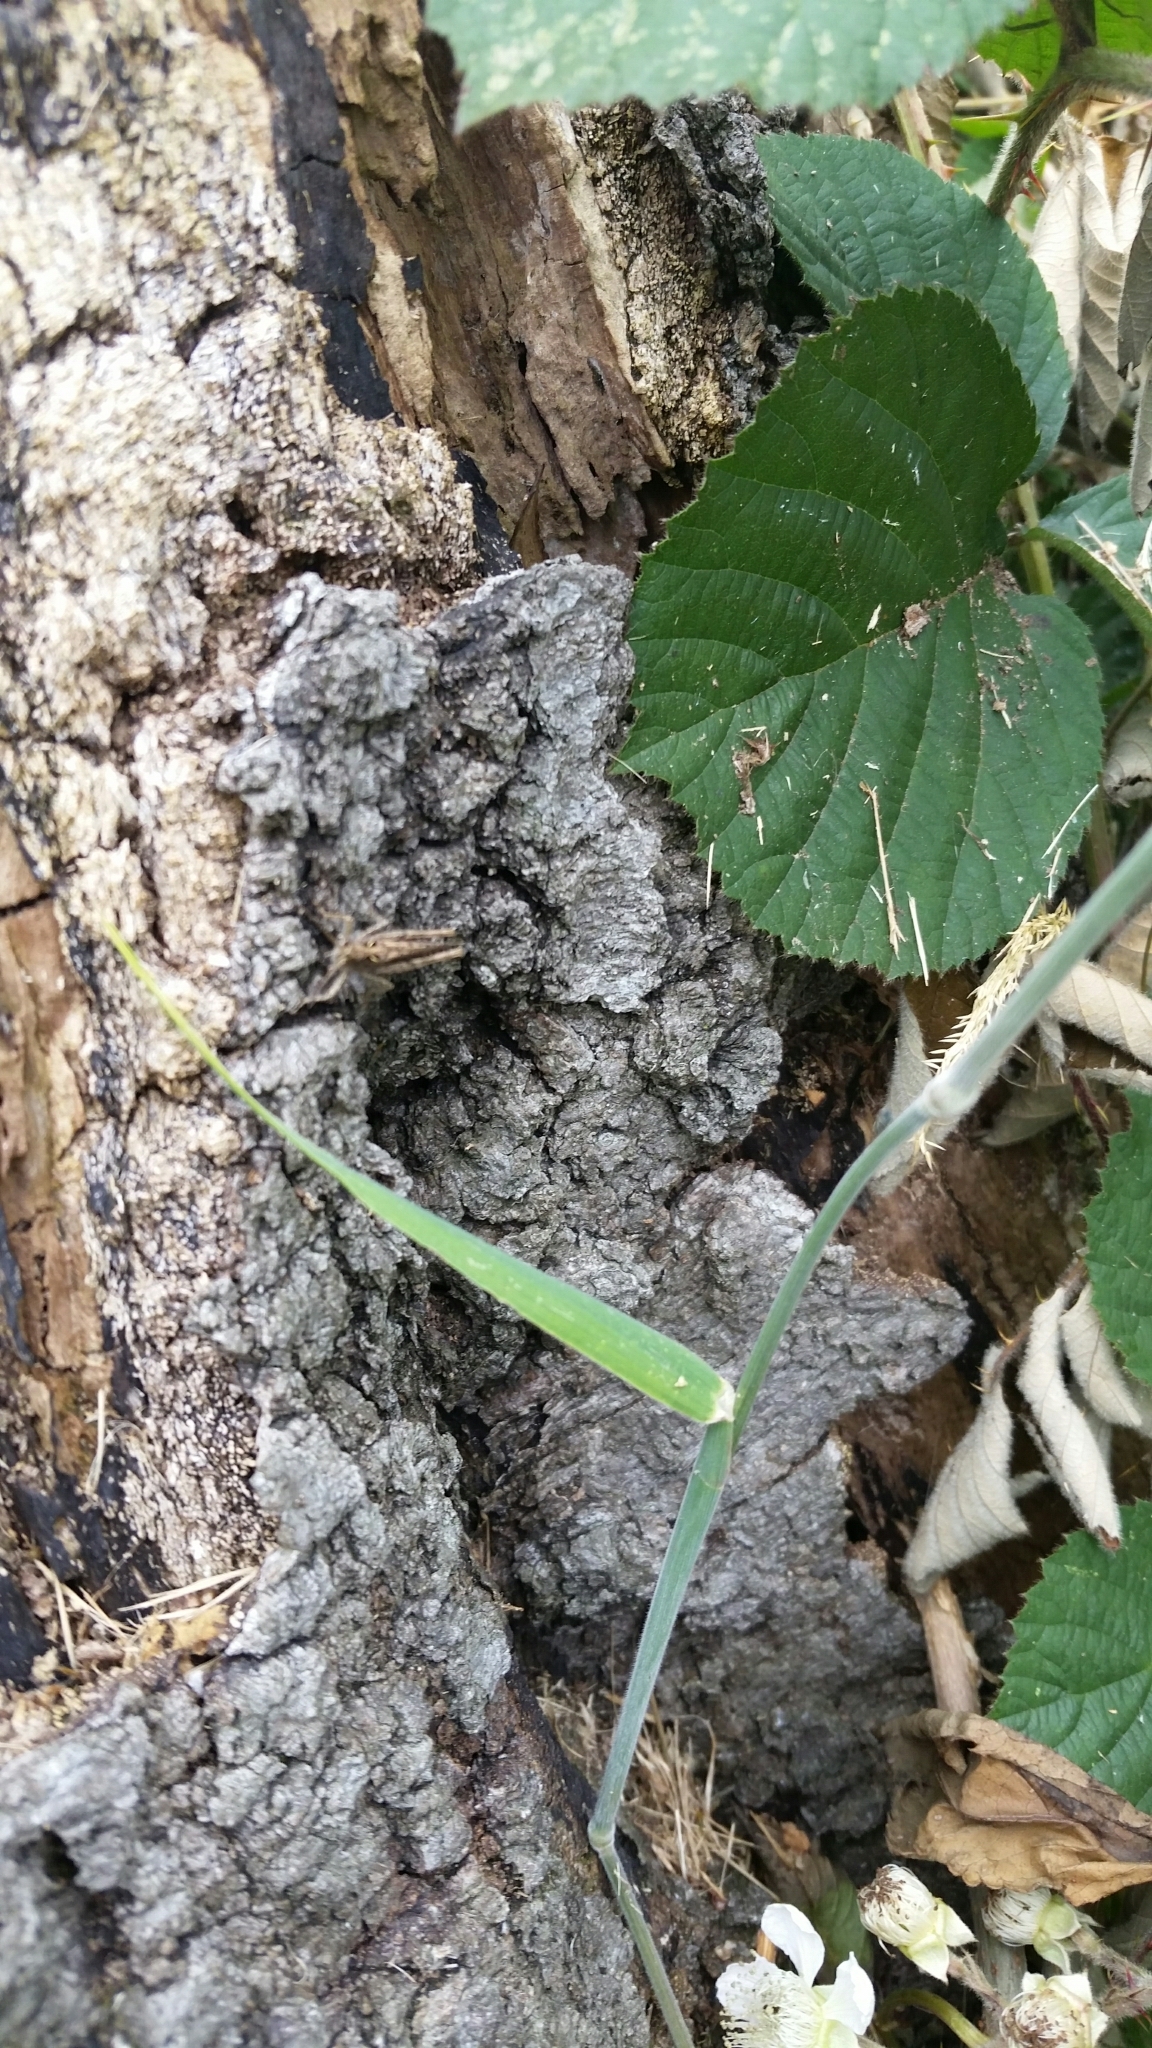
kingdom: Animalia
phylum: Arthropoda
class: Insecta
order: Orthoptera
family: Acrididae
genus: Chorthippus
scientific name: Chorthippus brunneus
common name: Field grasshopper
